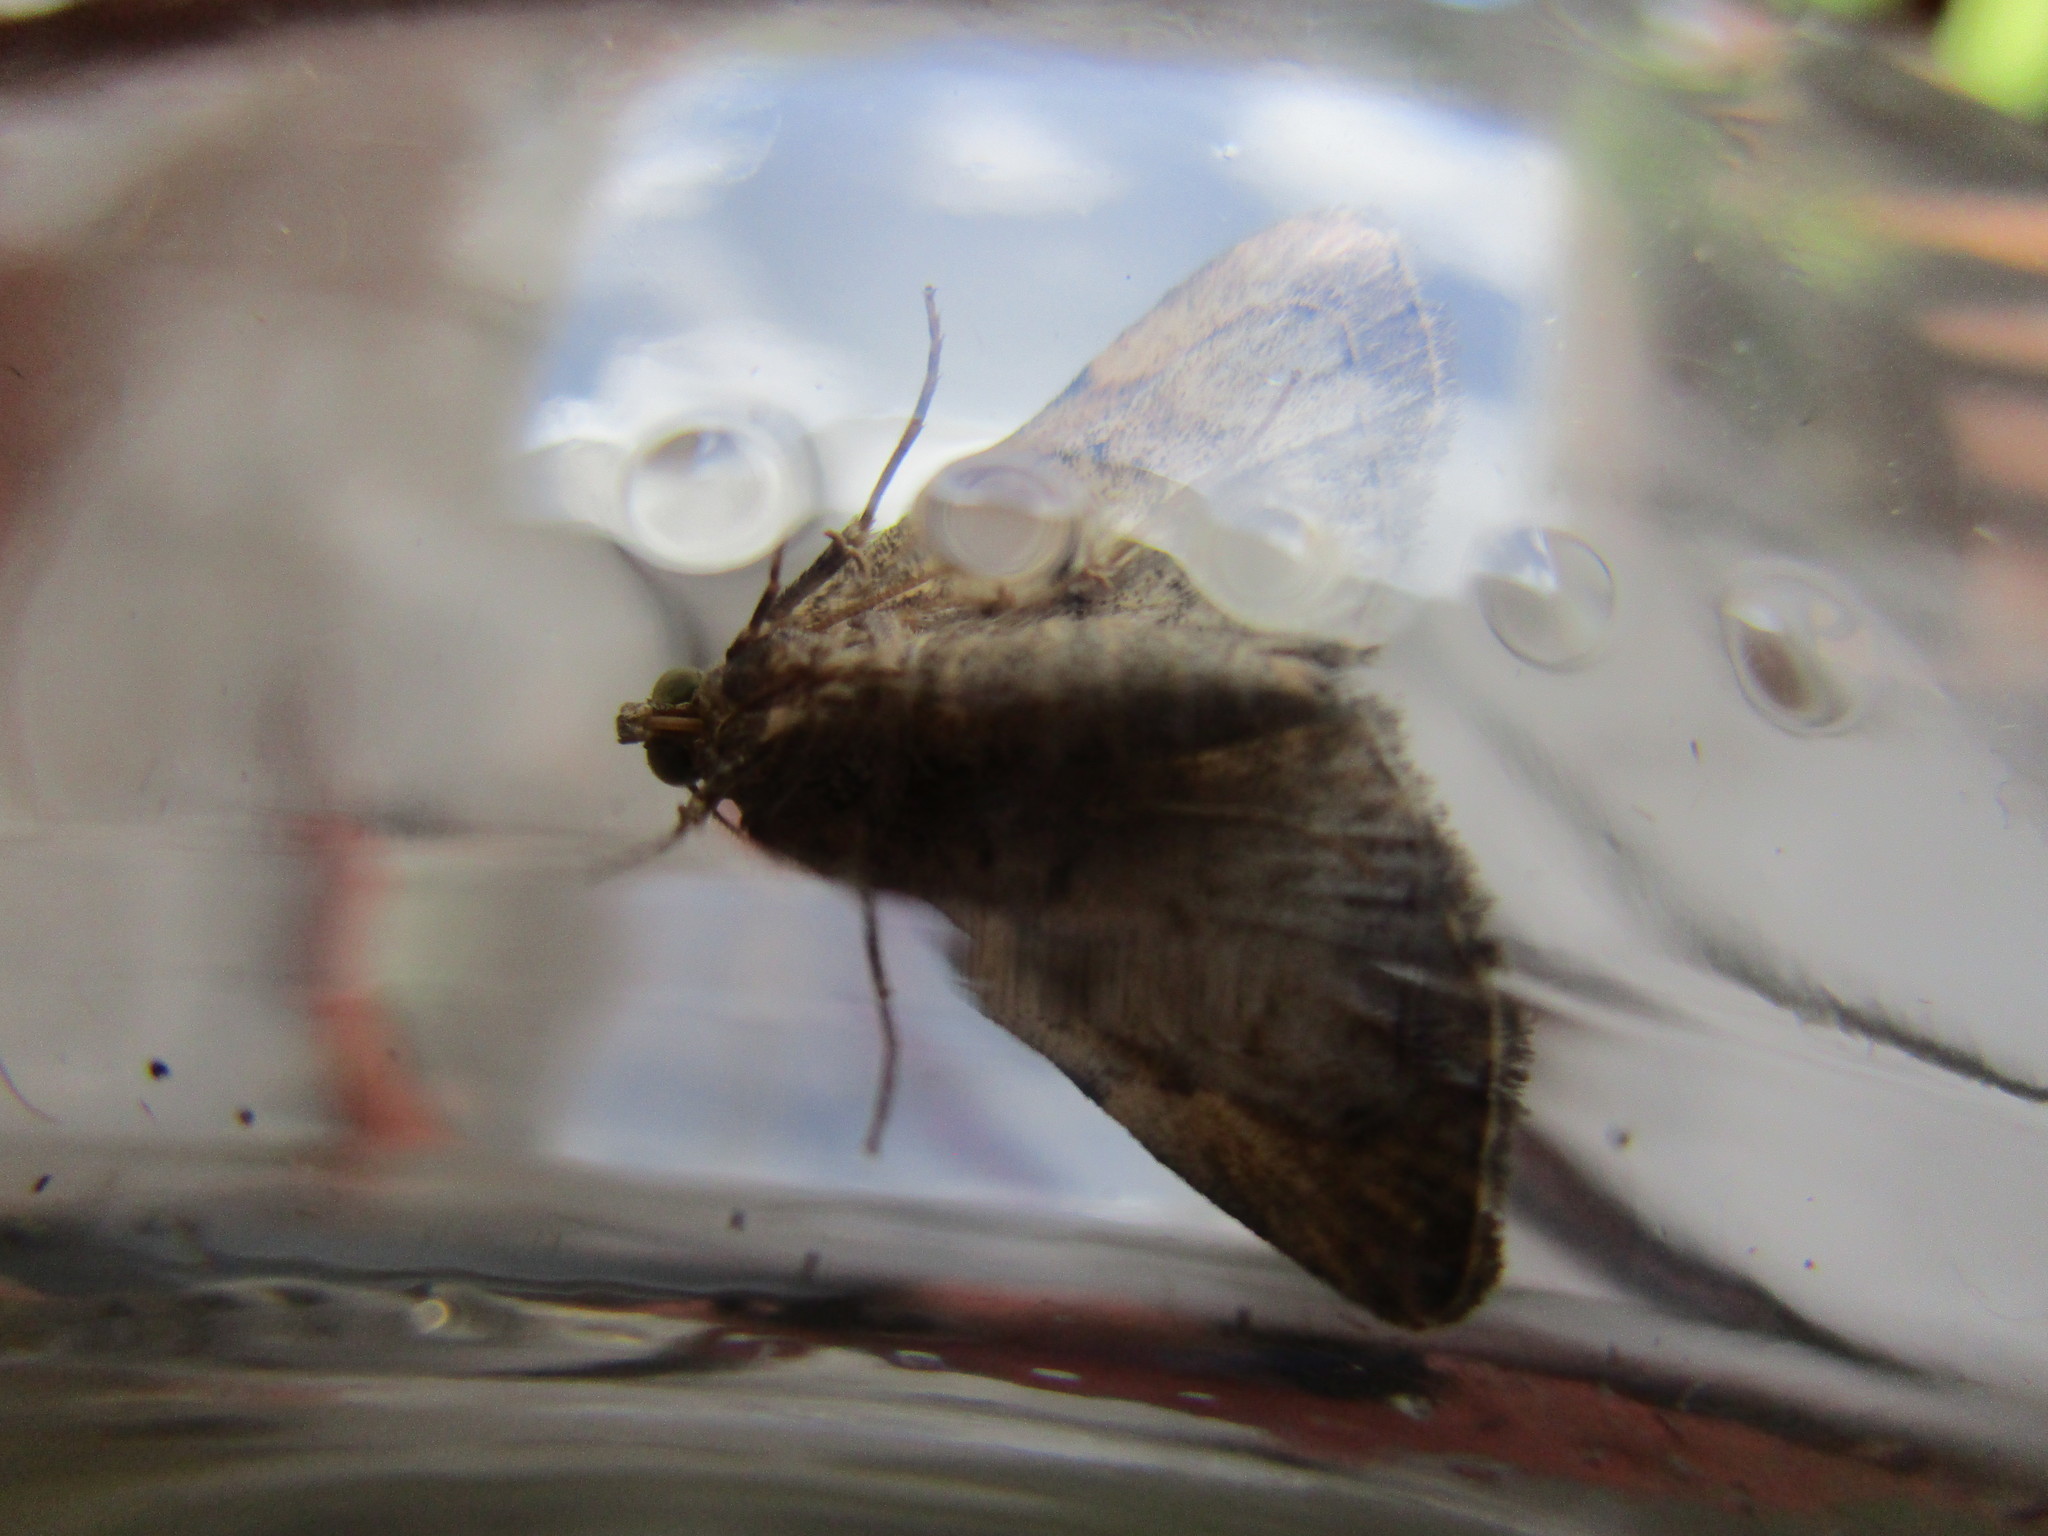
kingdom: Animalia
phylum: Arthropoda
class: Insecta
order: Lepidoptera
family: Erebidae
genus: Idia
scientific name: Idia diminuendis
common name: Orange-spotted idia moth
